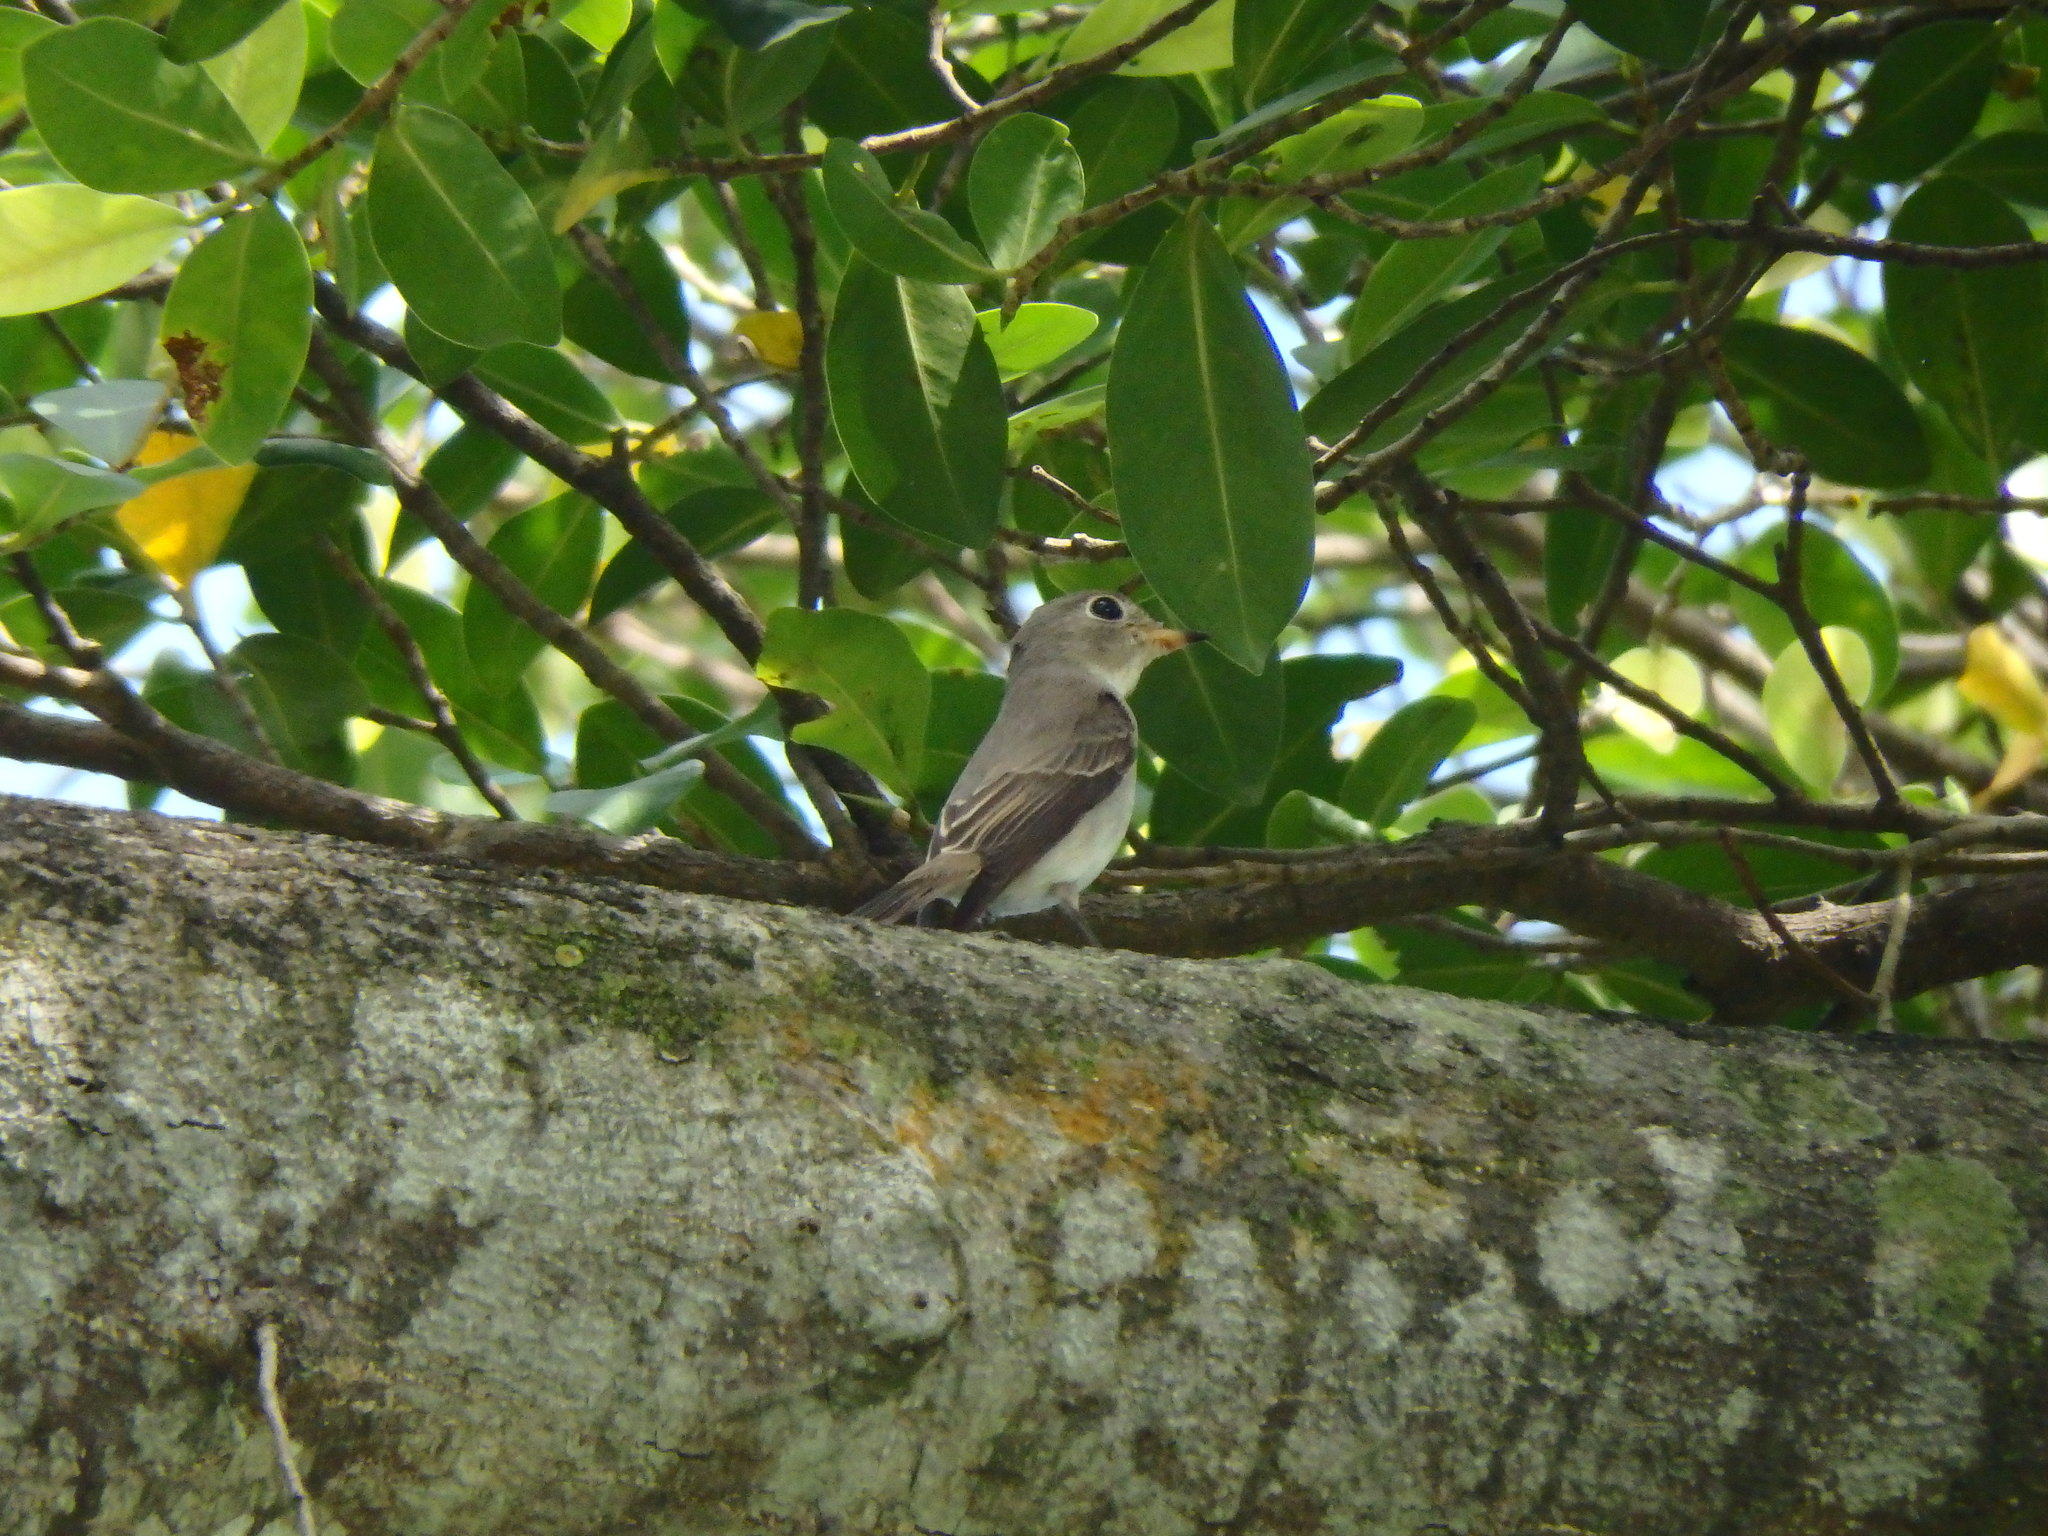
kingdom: Animalia
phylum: Chordata
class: Aves
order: Passeriformes
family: Muscicapidae
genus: Muscicapa
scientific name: Muscicapa latirostris
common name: Asian brown flycatcher
